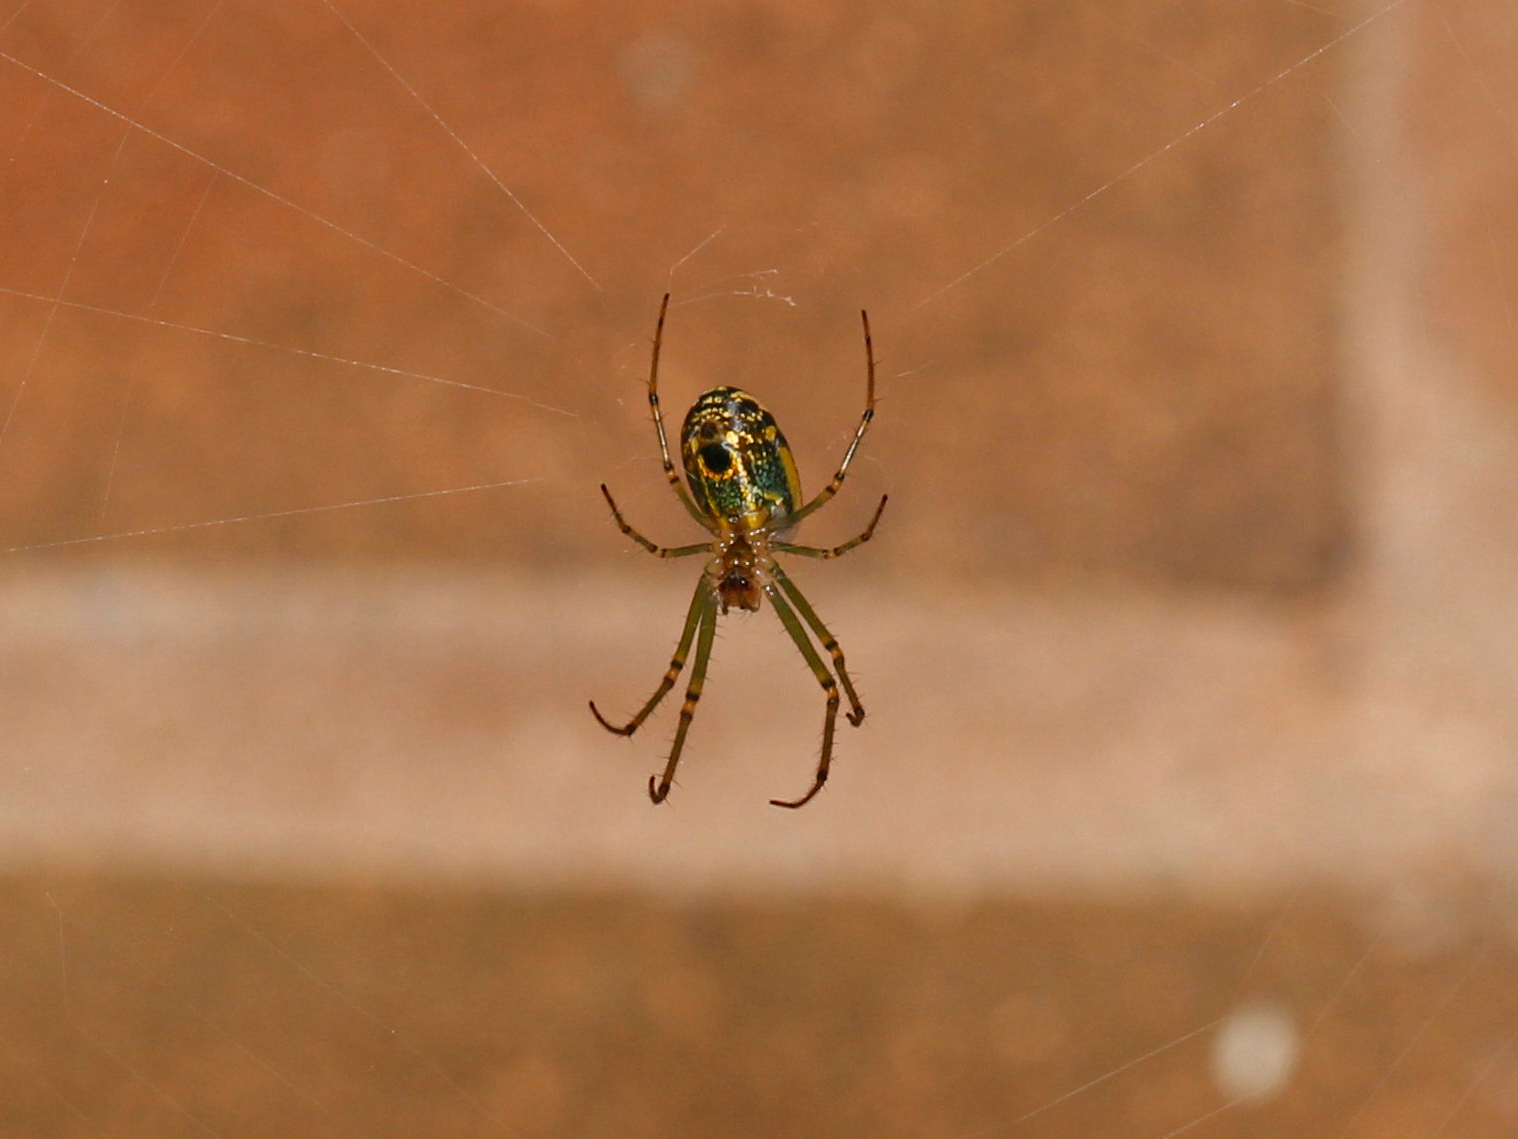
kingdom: Animalia
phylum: Arthropoda
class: Arachnida
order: Araneae
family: Tetragnathidae
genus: Leucauge
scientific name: Leucauge venusta
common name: Longjawed orb weavers
